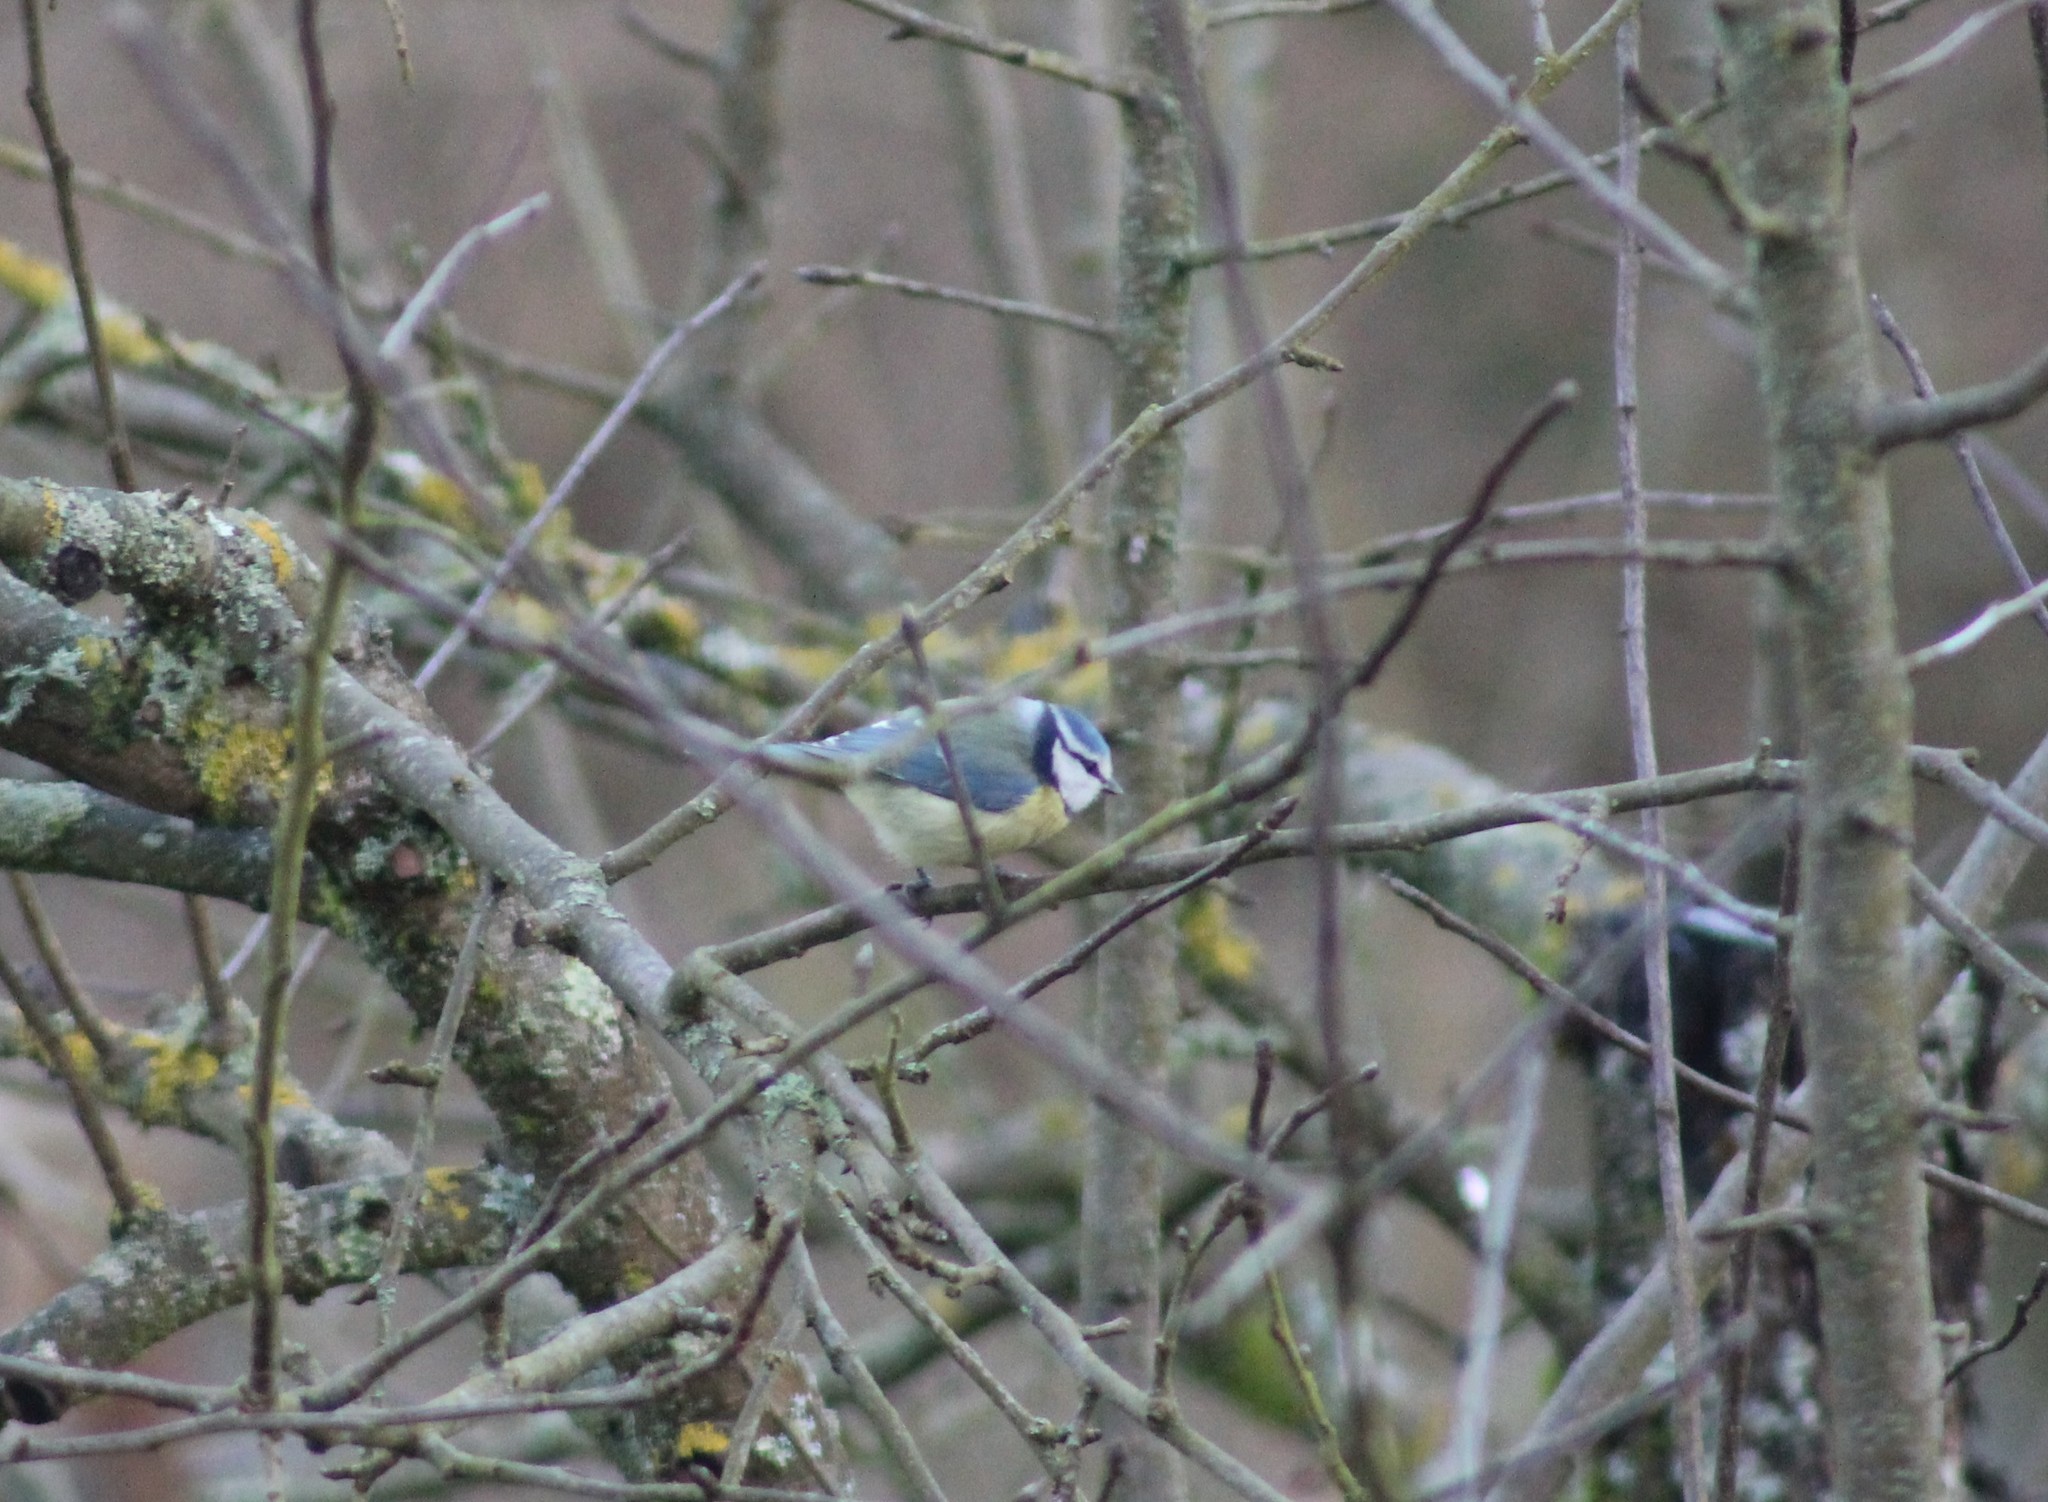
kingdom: Animalia
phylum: Chordata
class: Aves
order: Passeriformes
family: Paridae
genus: Cyanistes
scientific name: Cyanistes caeruleus
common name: Eurasian blue tit
